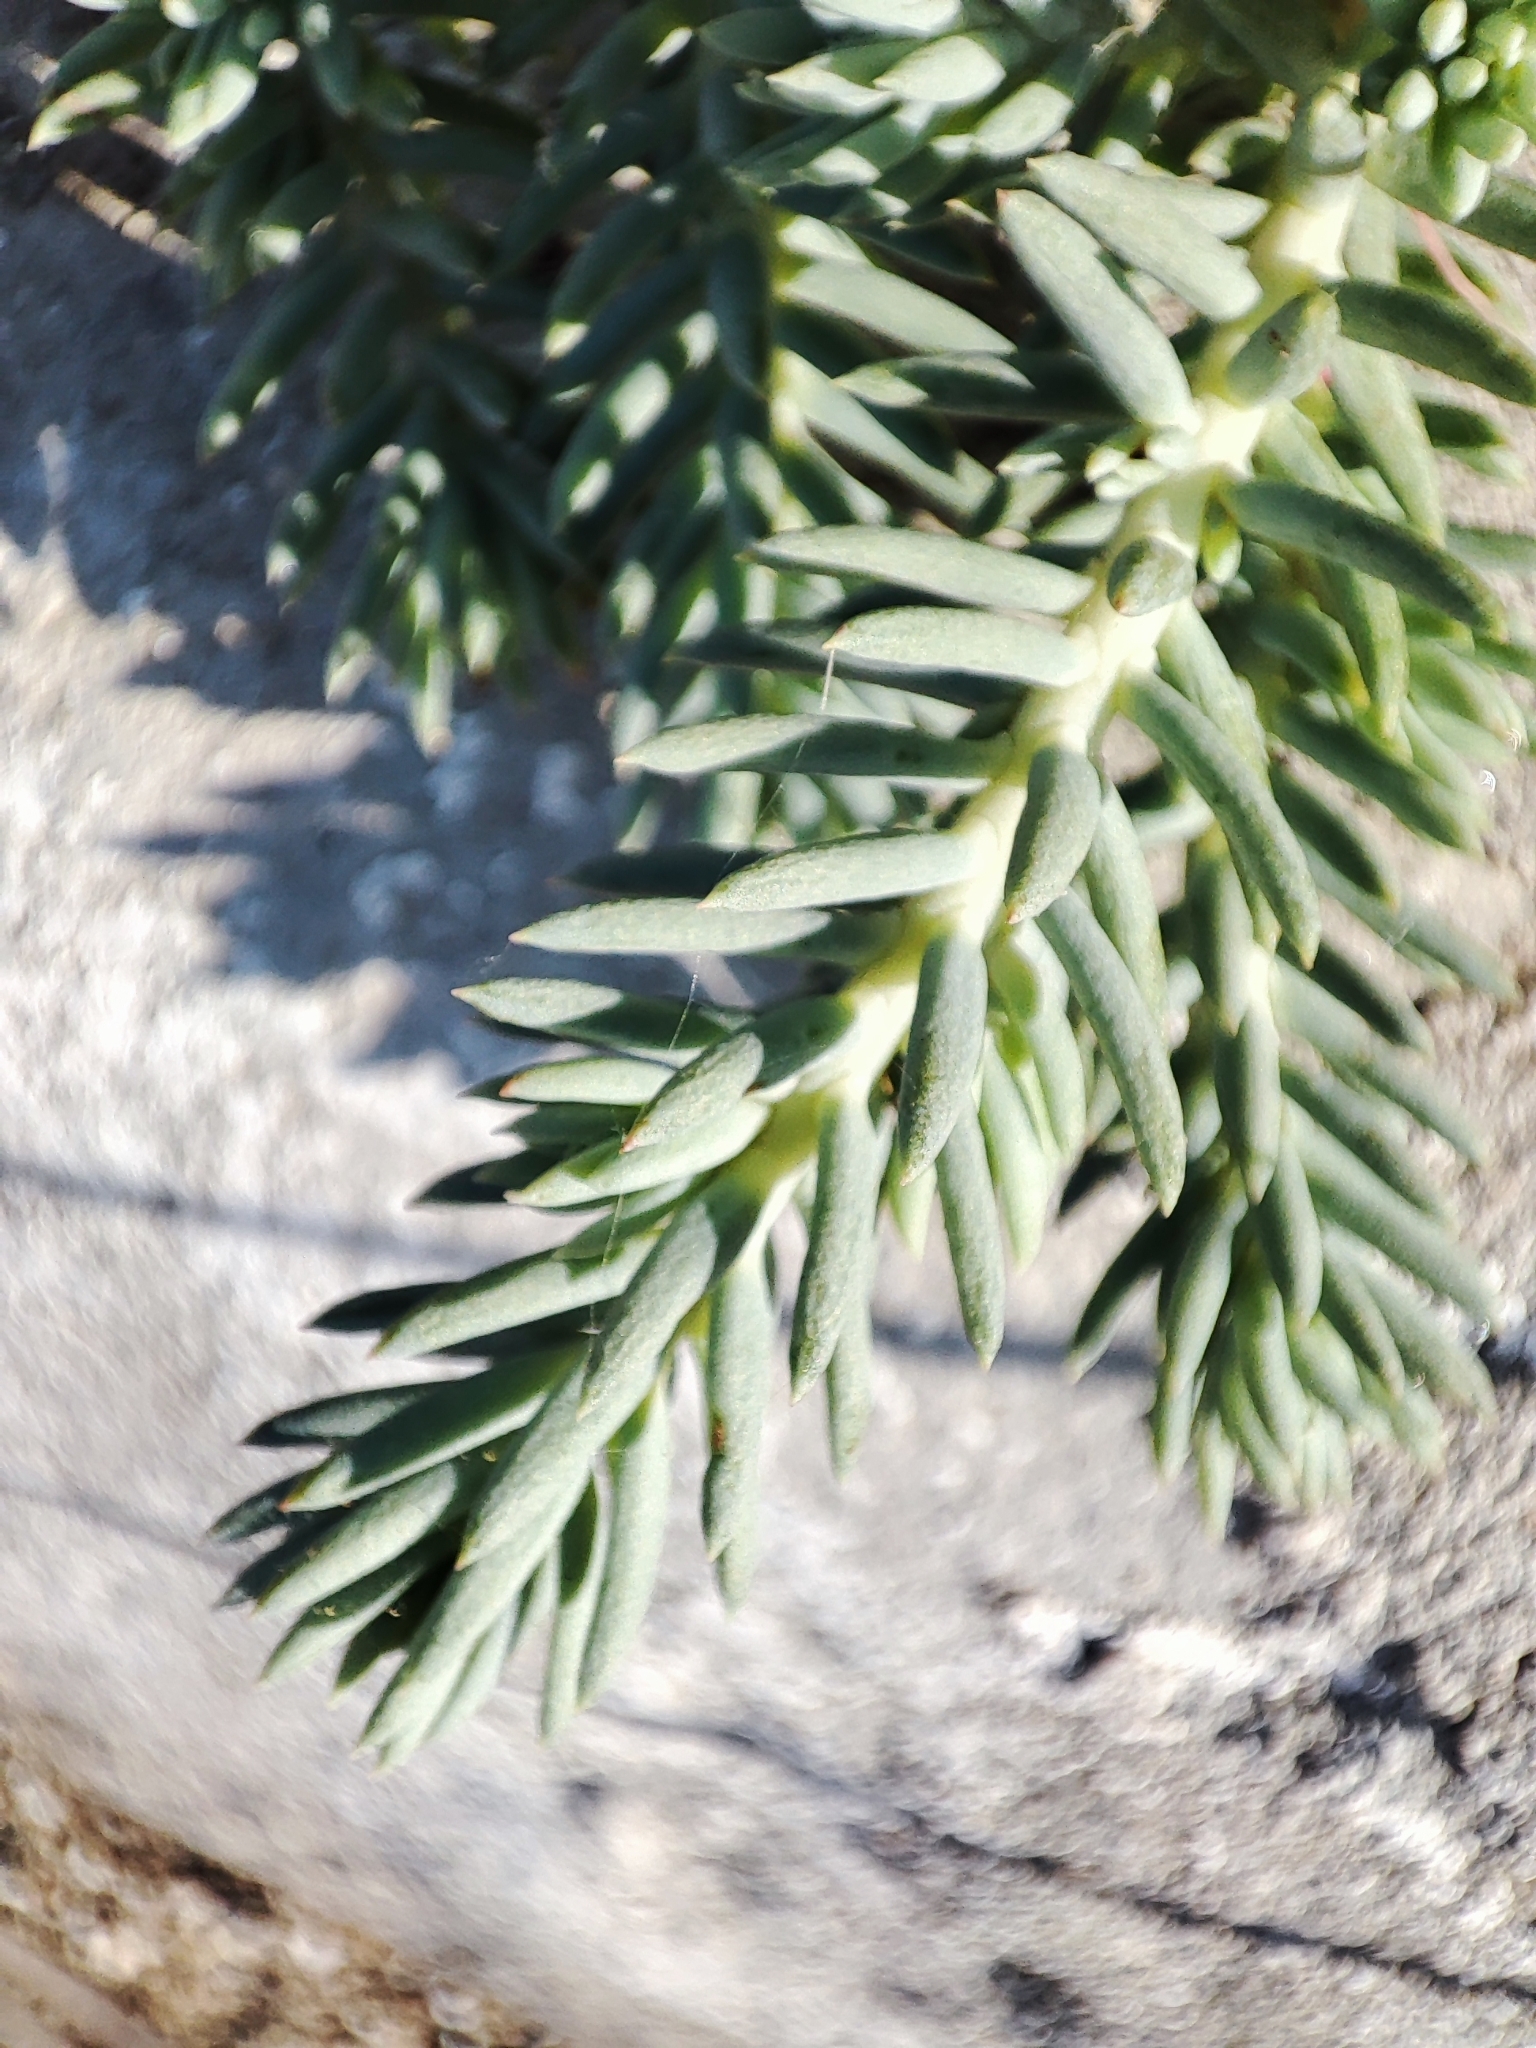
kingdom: Plantae
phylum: Tracheophyta
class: Magnoliopsida
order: Saxifragales
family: Crassulaceae
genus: Petrosedum
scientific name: Petrosedum
